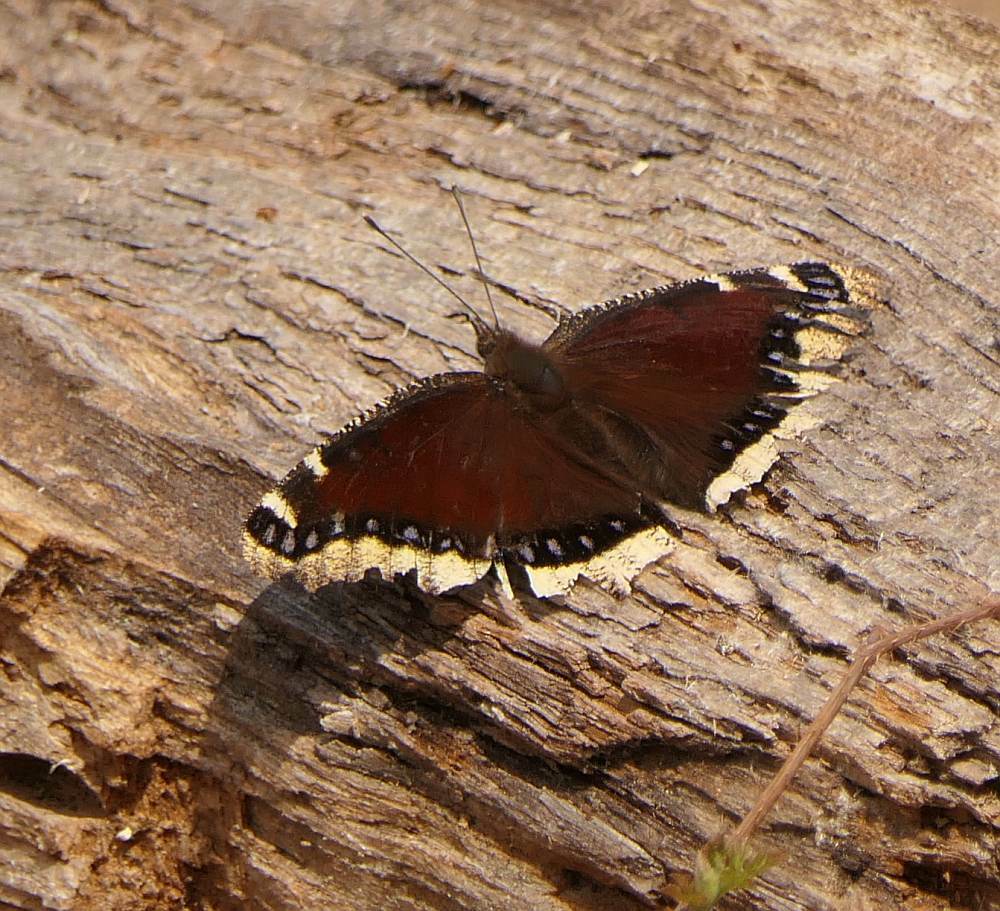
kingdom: Animalia
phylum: Arthropoda
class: Insecta
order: Lepidoptera
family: Nymphalidae
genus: Nymphalis
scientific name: Nymphalis antiopa
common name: Camberwell beauty
